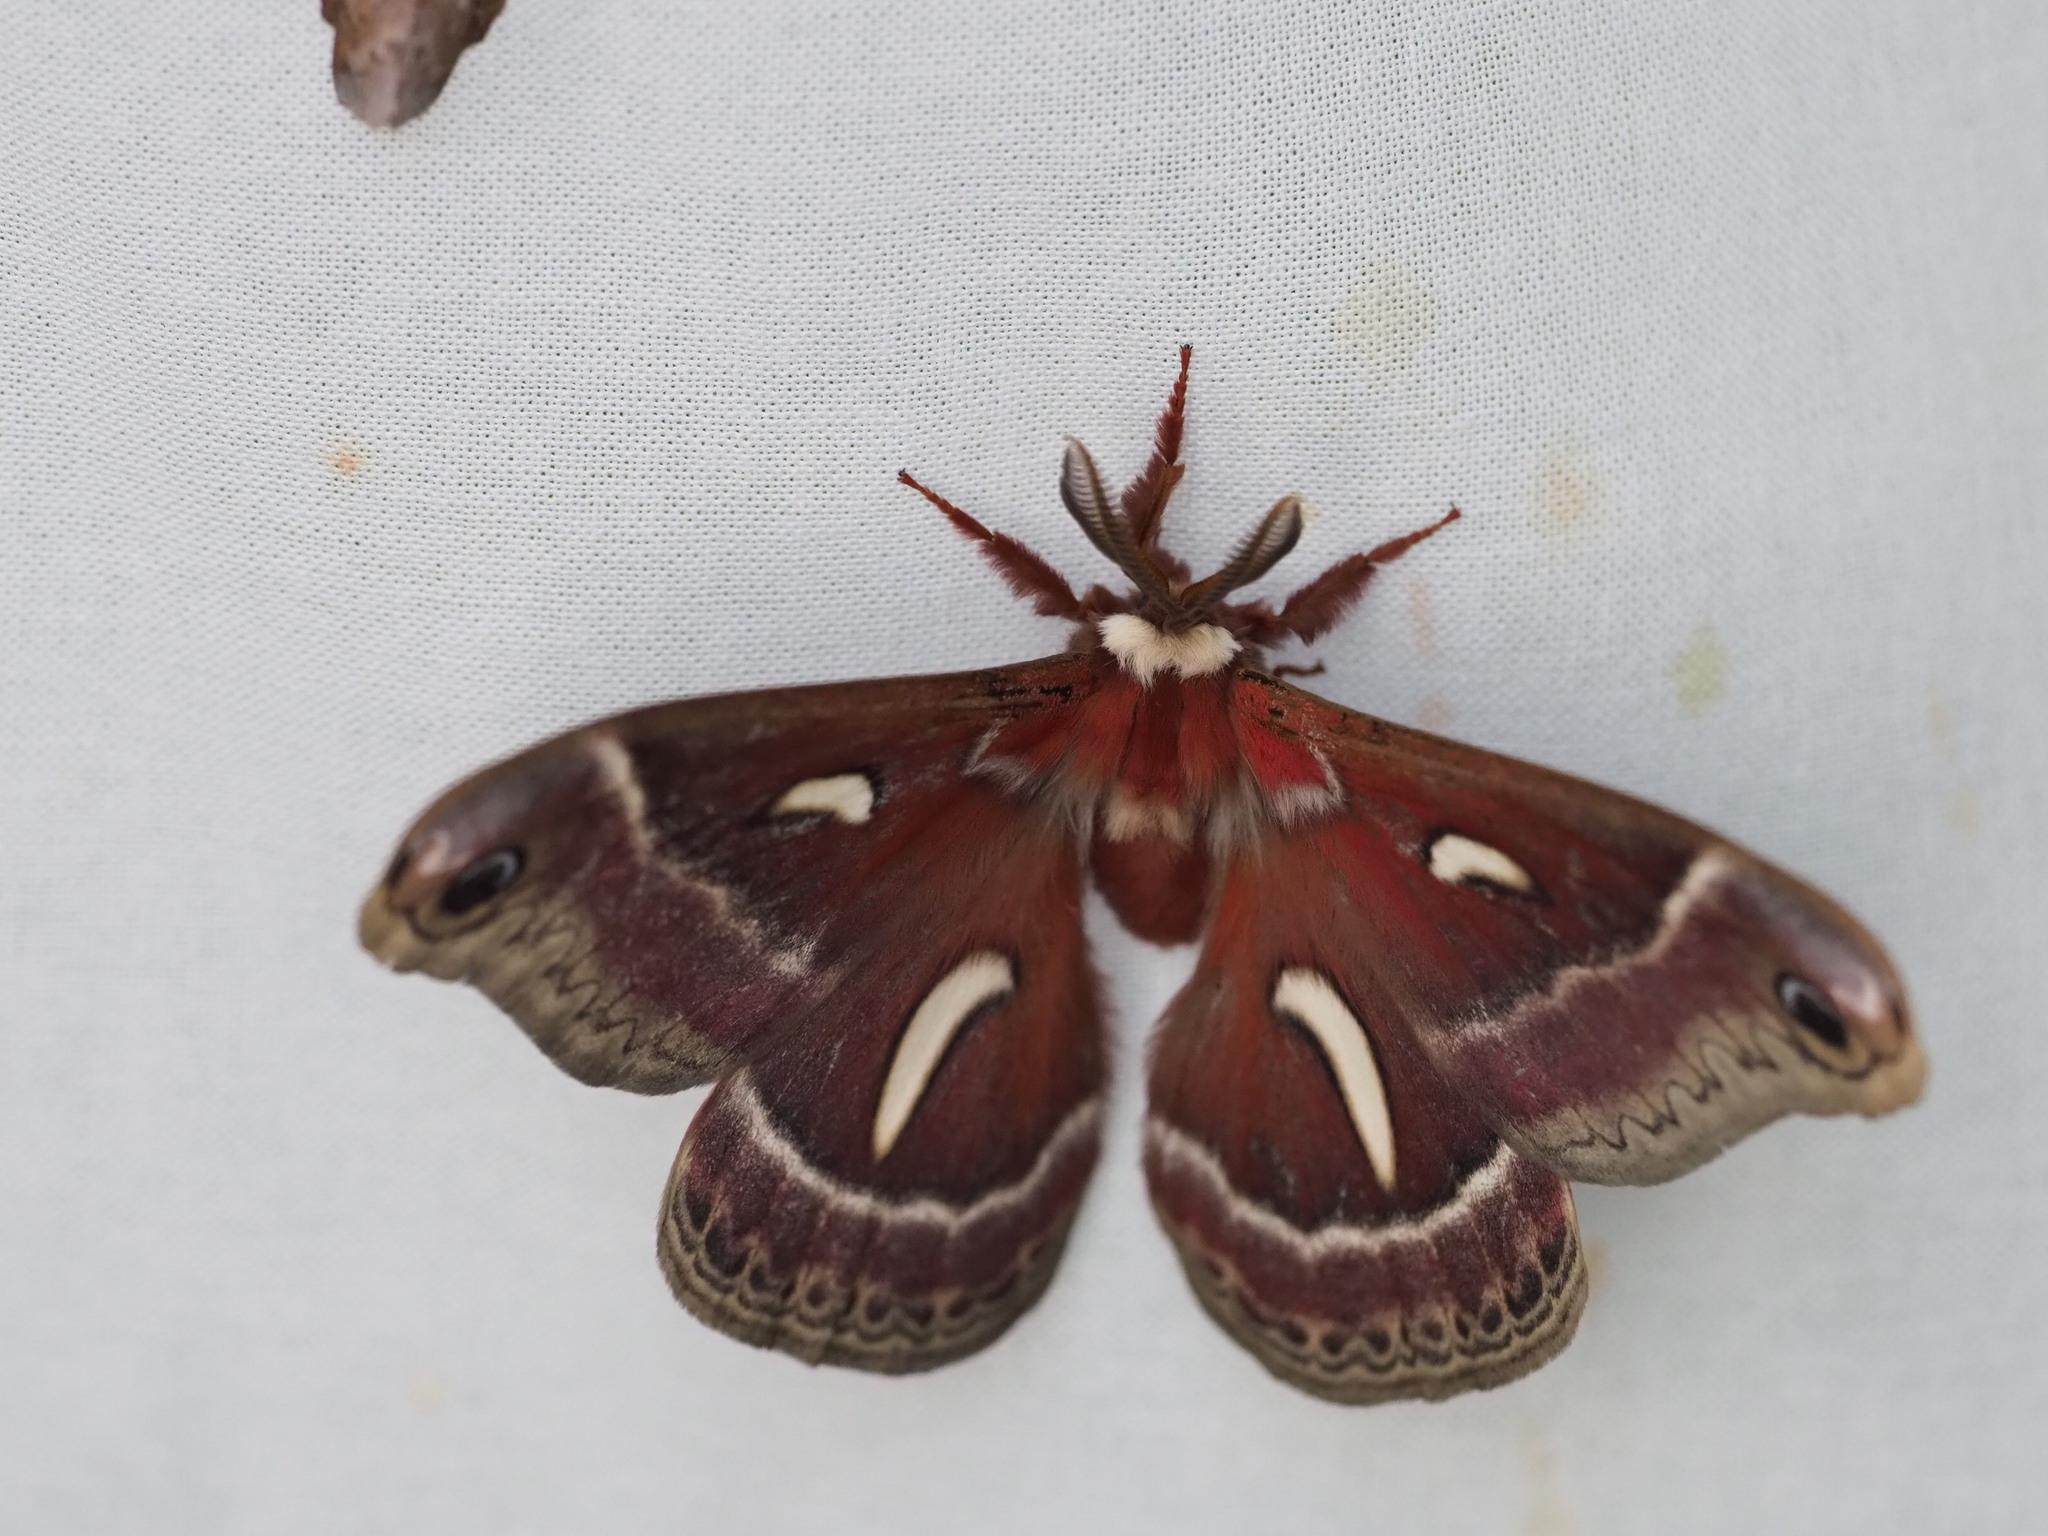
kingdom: Animalia
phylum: Arthropoda
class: Insecta
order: Lepidoptera
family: Saturniidae
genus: Hyalophora
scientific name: Hyalophora euryalus
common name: Ceanothus silkmoth
